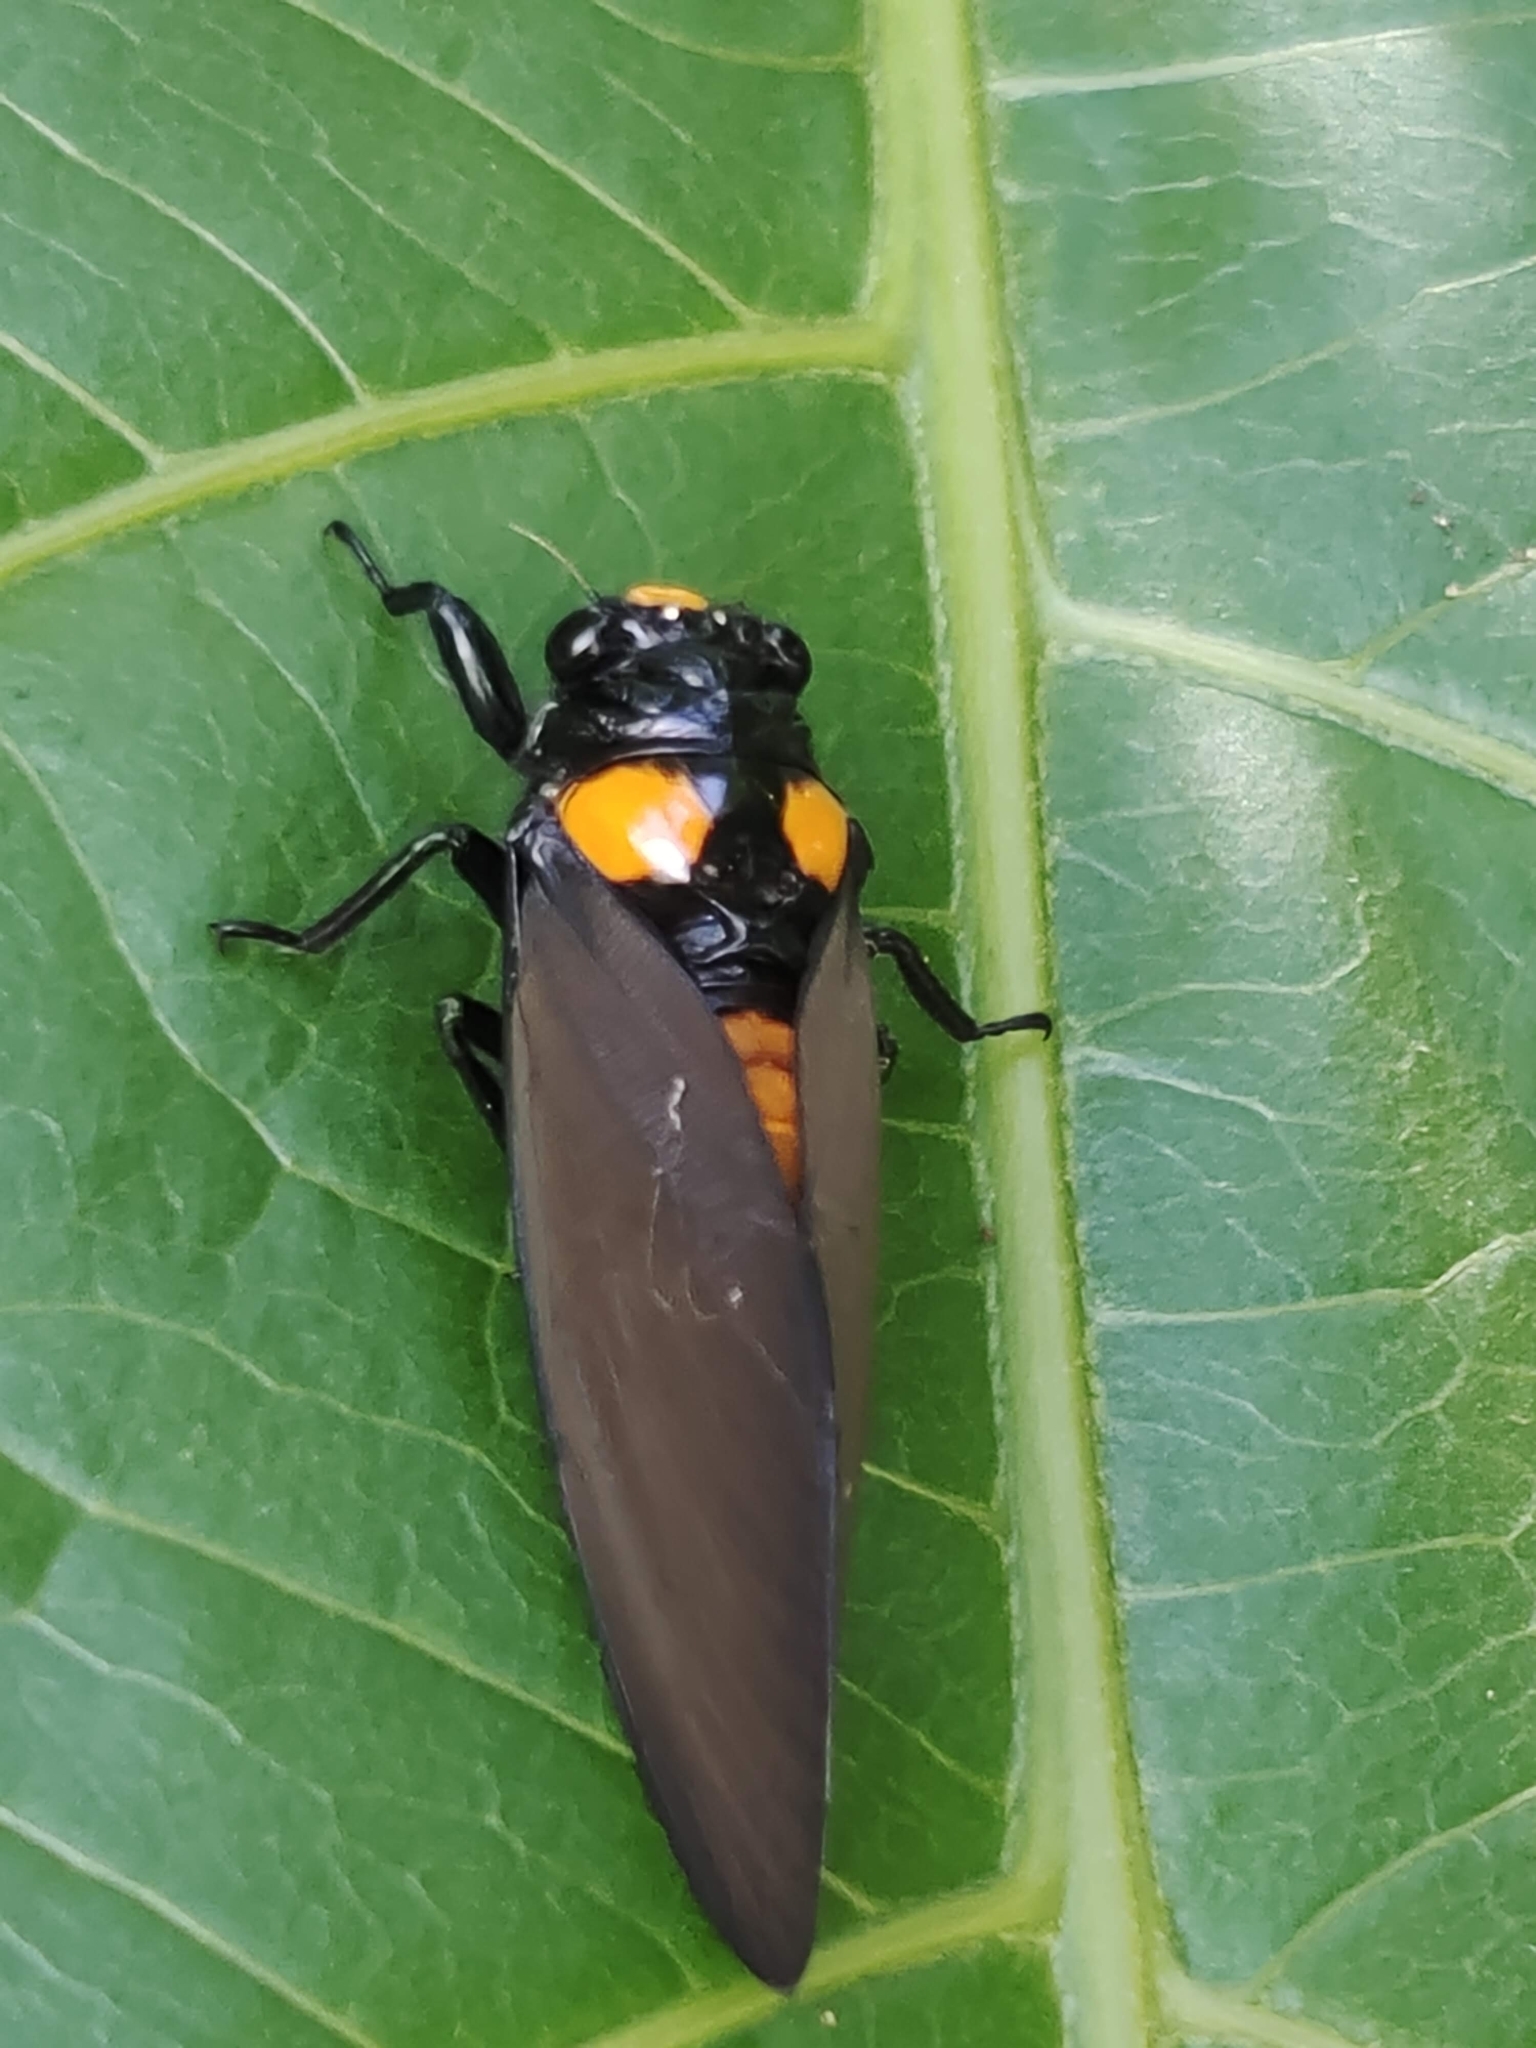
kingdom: Animalia
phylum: Arthropoda
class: Insecta
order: Hemiptera
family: Cicadidae
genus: Huechys
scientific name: Huechys fusca
